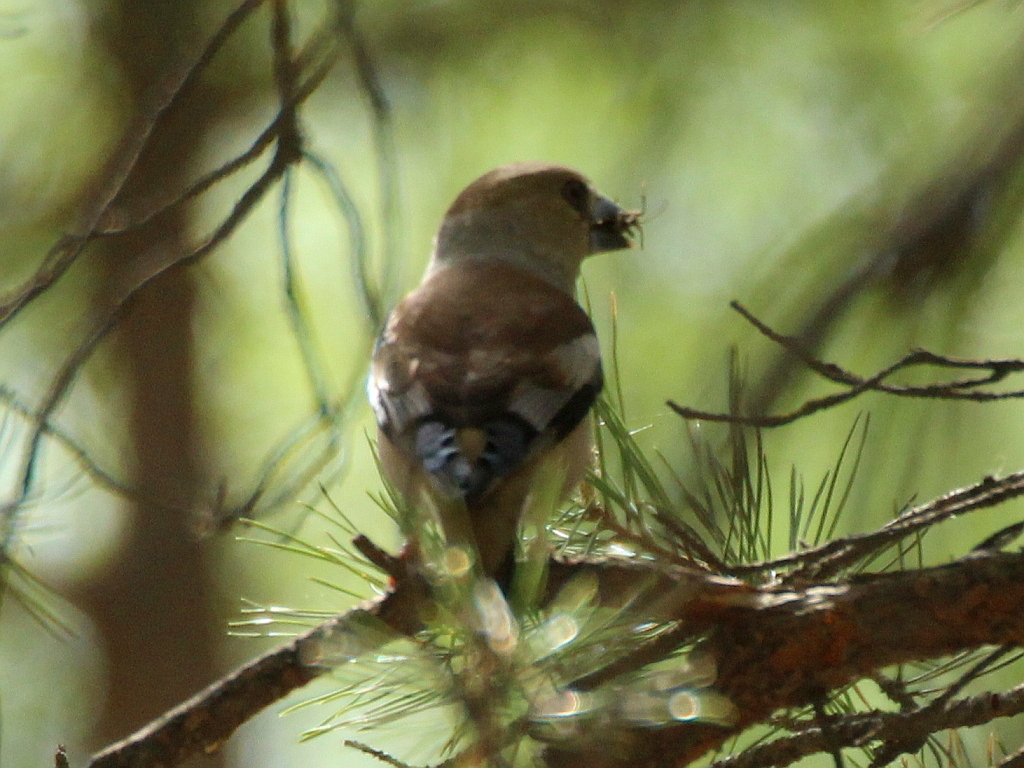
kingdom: Animalia
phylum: Chordata
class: Aves
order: Passeriformes
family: Fringillidae
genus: Coccothraustes
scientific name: Coccothraustes coccothraustes
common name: Hawfinch
